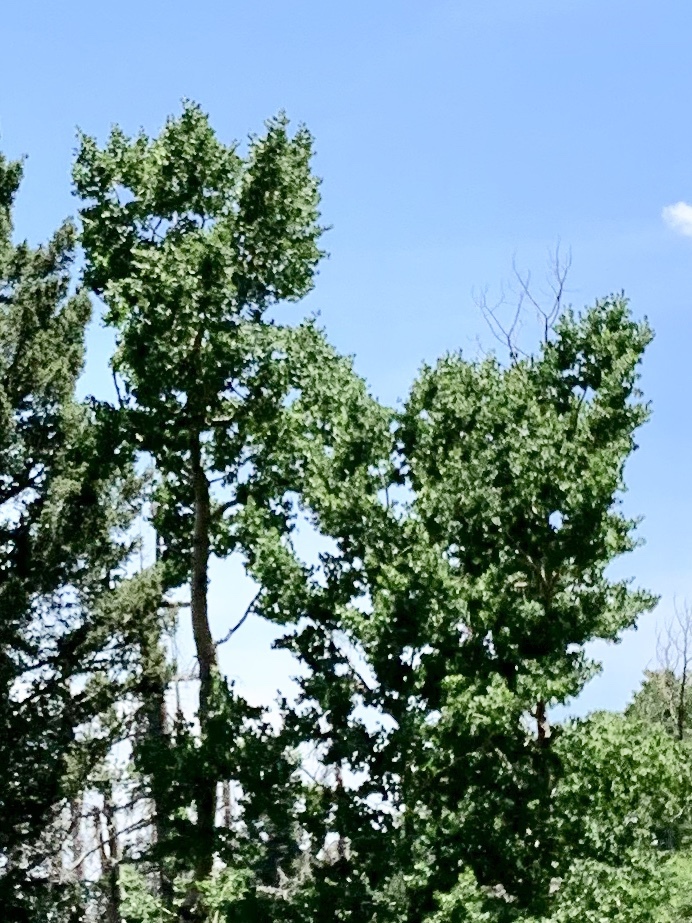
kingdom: Plantae
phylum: Tracheophyta
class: Magnoliopsida
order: Malpighiales
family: Salicaceae
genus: Populus
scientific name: Populus tremuloides
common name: Quaking aspen
